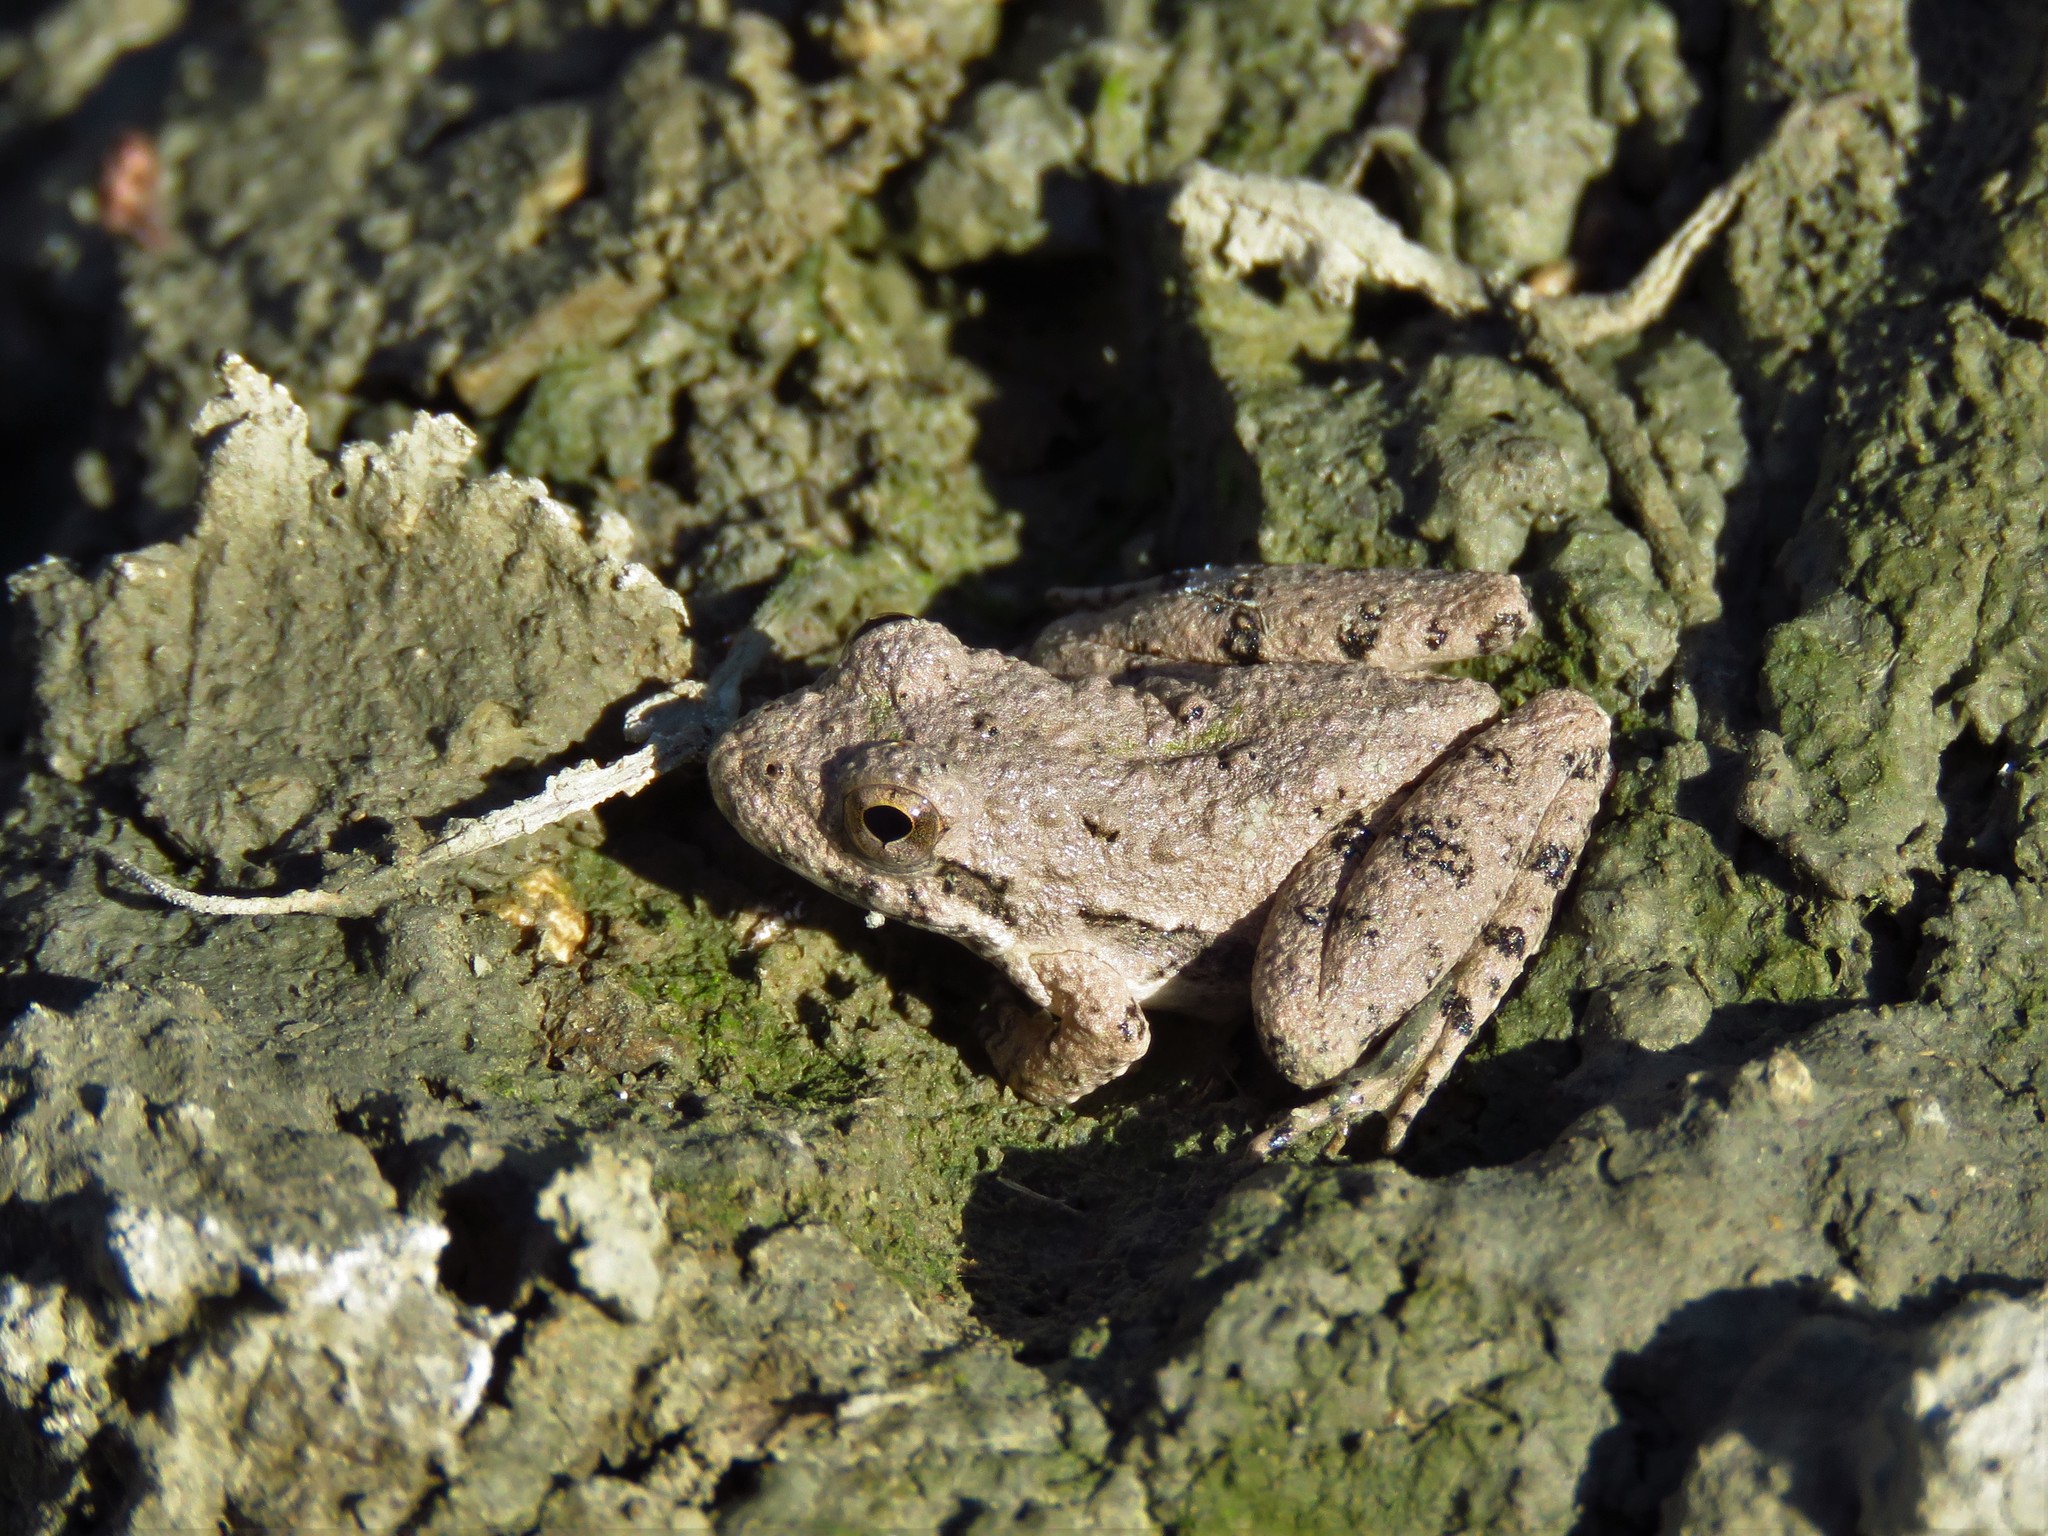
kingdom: Animalia
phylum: Chordata
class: Amphibia
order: Anura
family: Hylidae
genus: Acris
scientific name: Acris blanchardi
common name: Blanchard's cricket frog
